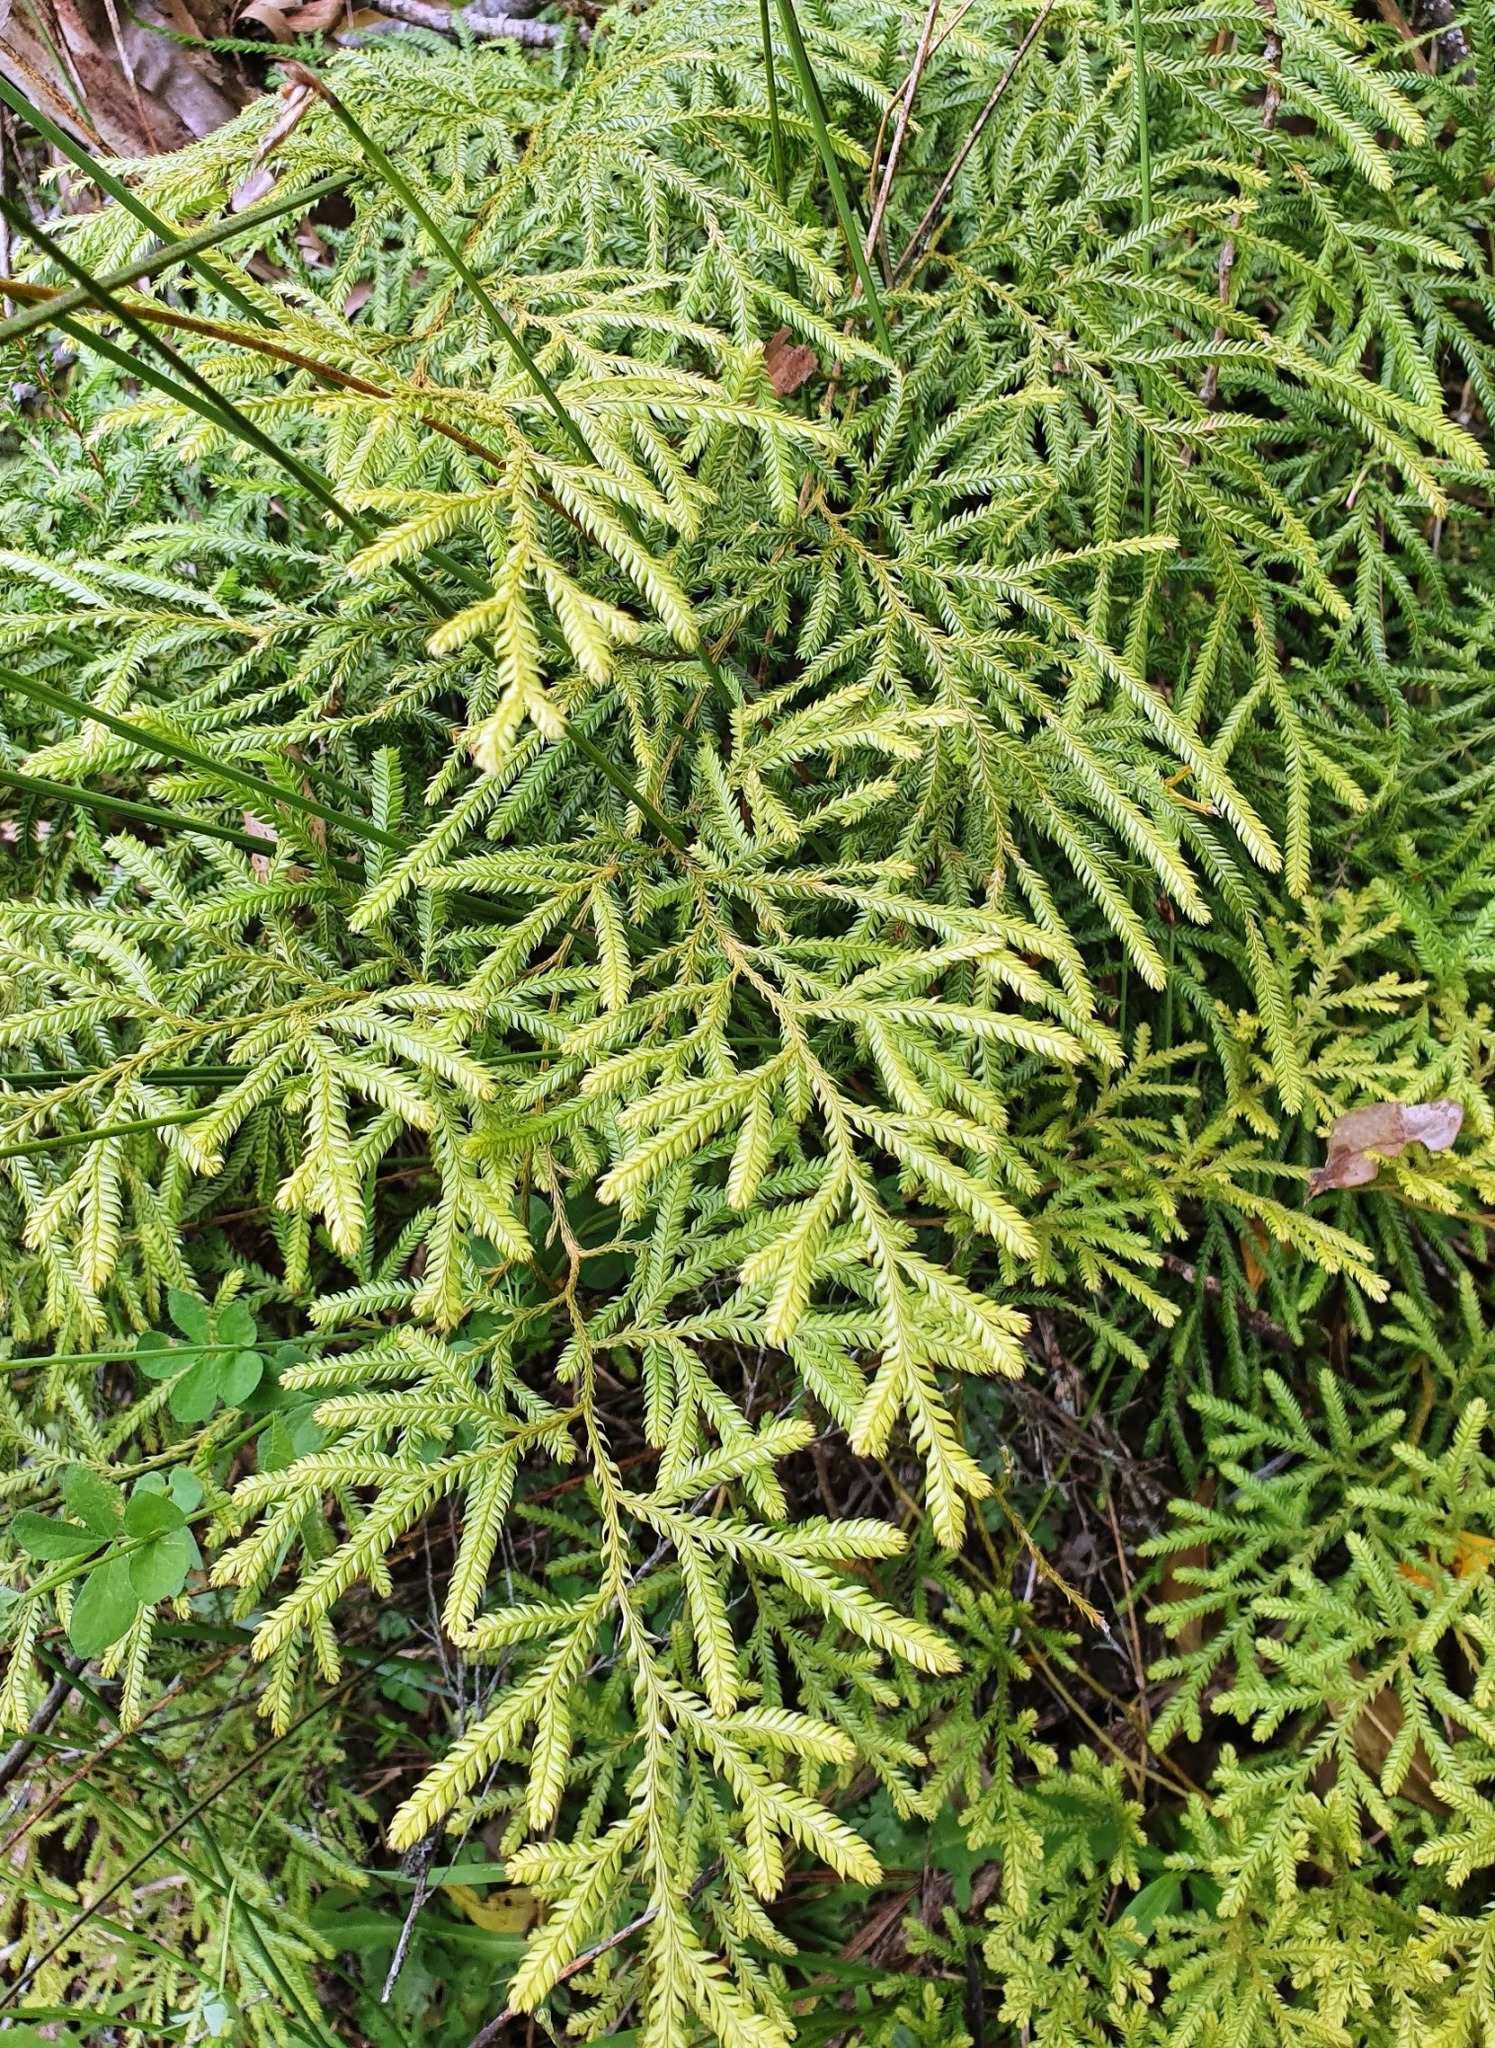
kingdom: Plantae
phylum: Tracheophyta
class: Lycopodiopsida
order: Lycopodiales
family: Lycopodiaceae
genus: Lycopodium
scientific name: Lycopodium volubile
